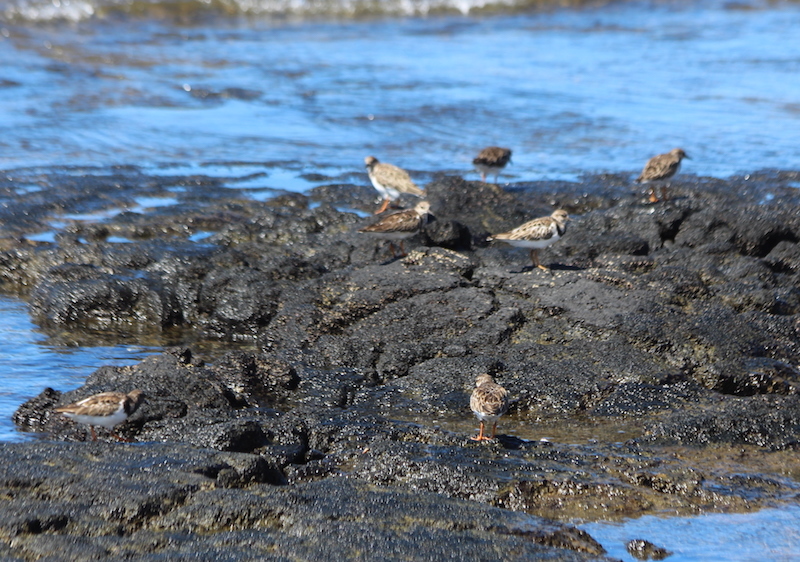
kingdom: Animalia
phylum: Chordata
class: Aves
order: Charadriiformes
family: Scolopacidae
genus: Arenaria
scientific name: Arenaria interpres
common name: Ruddy turnstone
